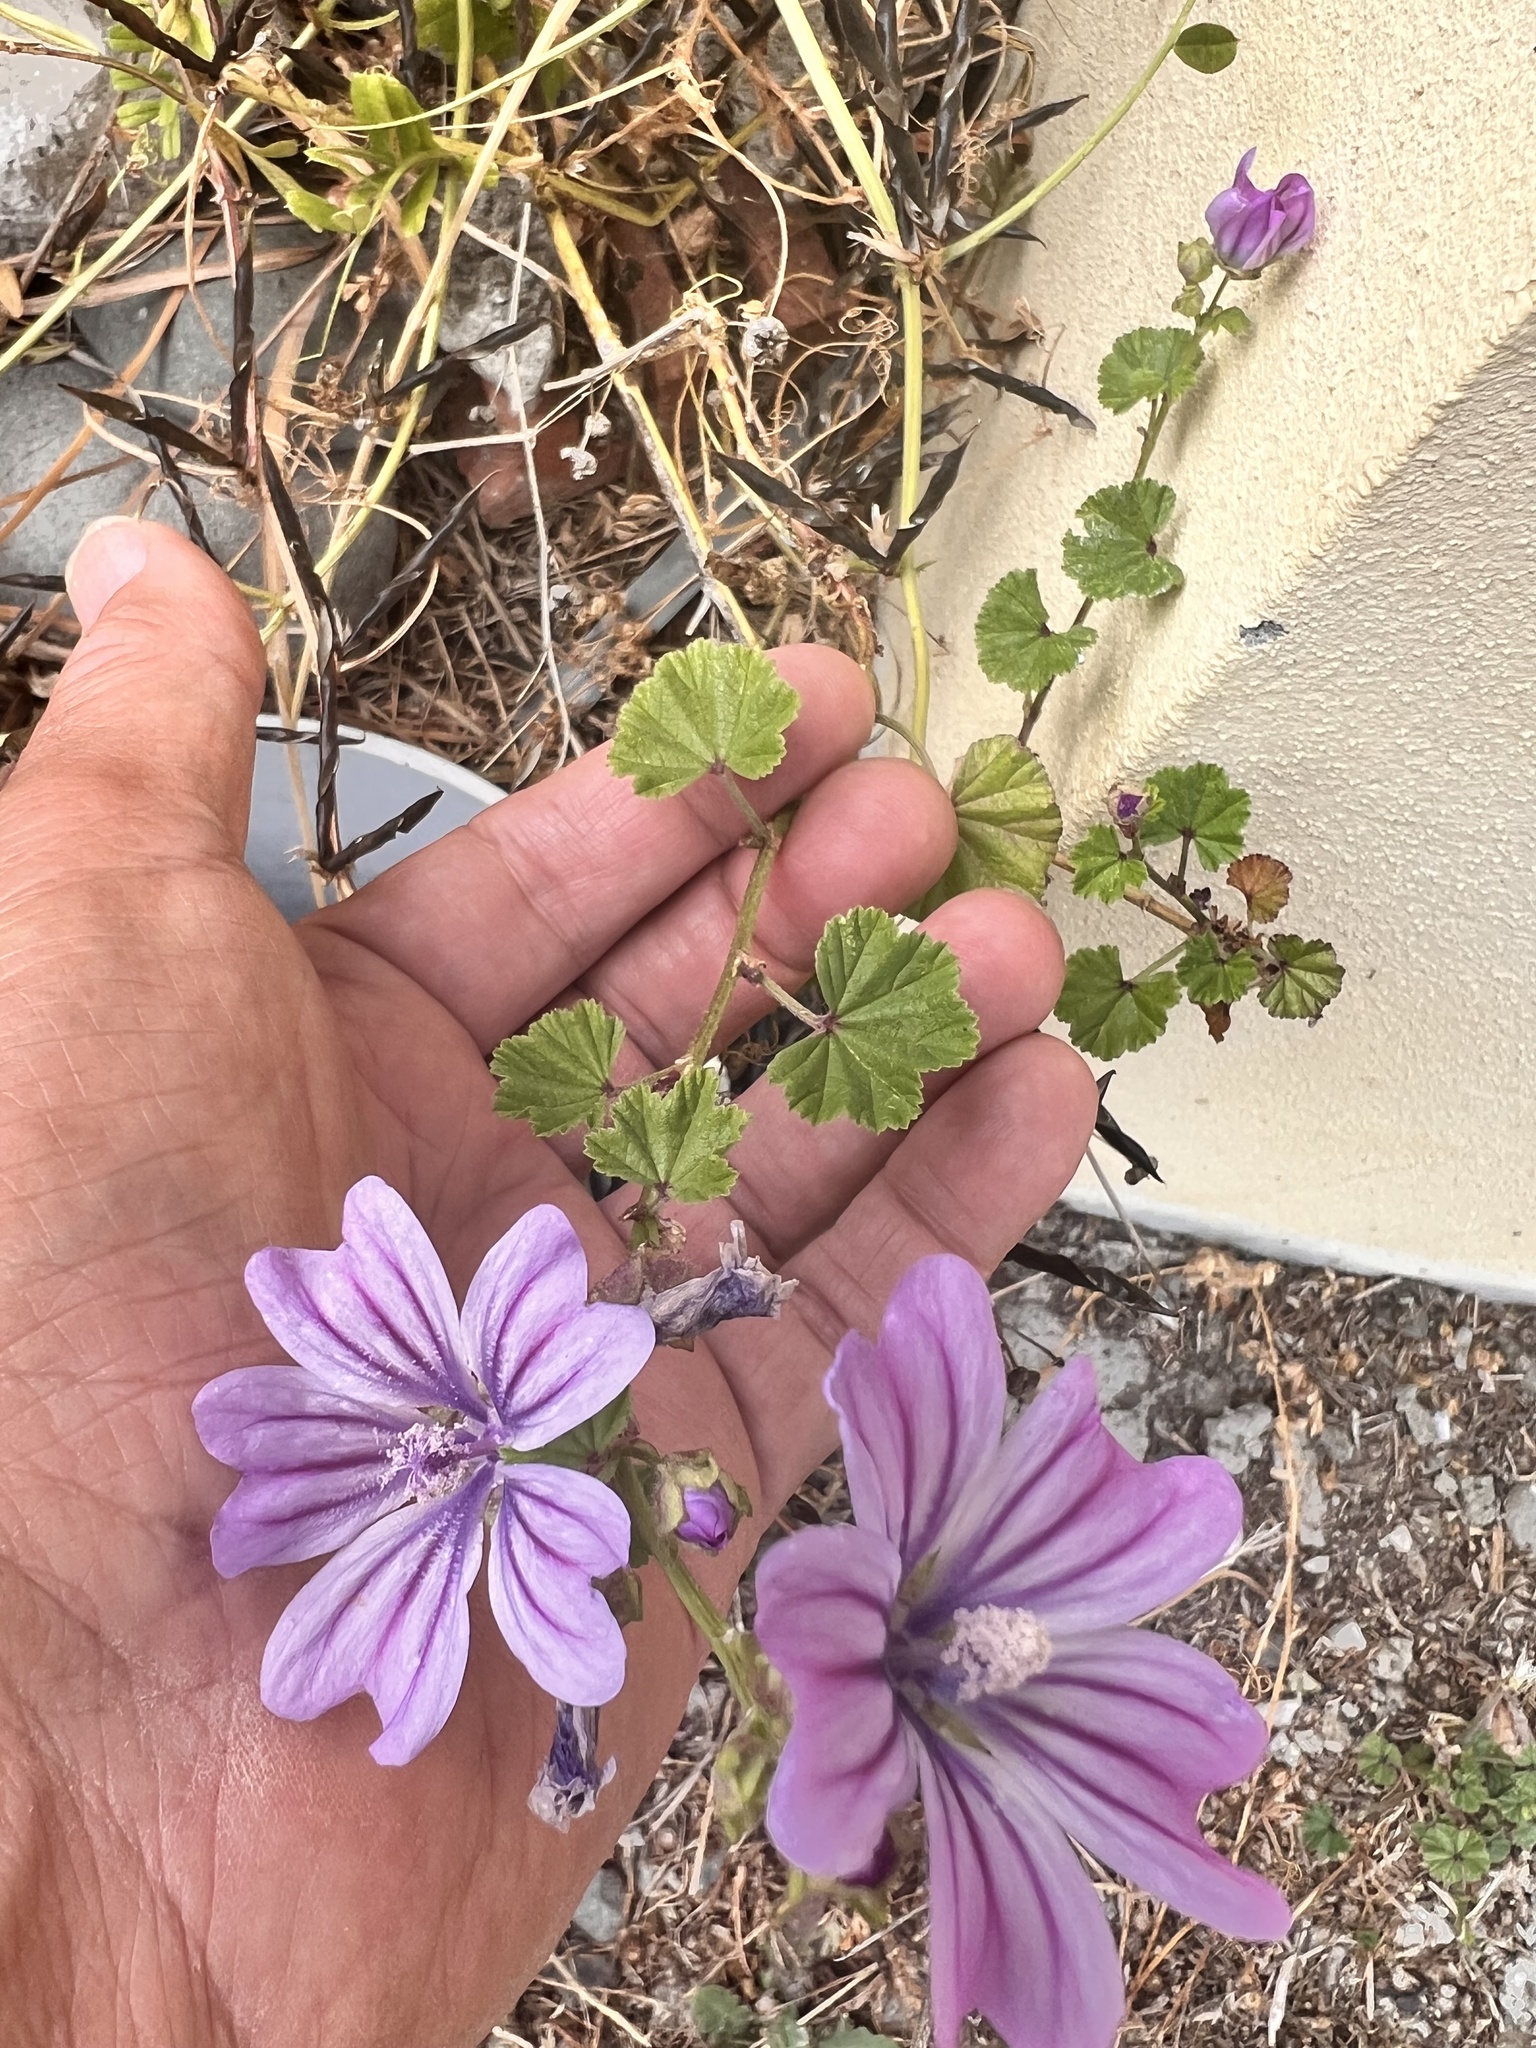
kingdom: Plantae
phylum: Tracheophyta
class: Magnoliopsida
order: Malvales
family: Malvaceae
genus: Malva
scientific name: Malva sylvestris
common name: Common mallow
